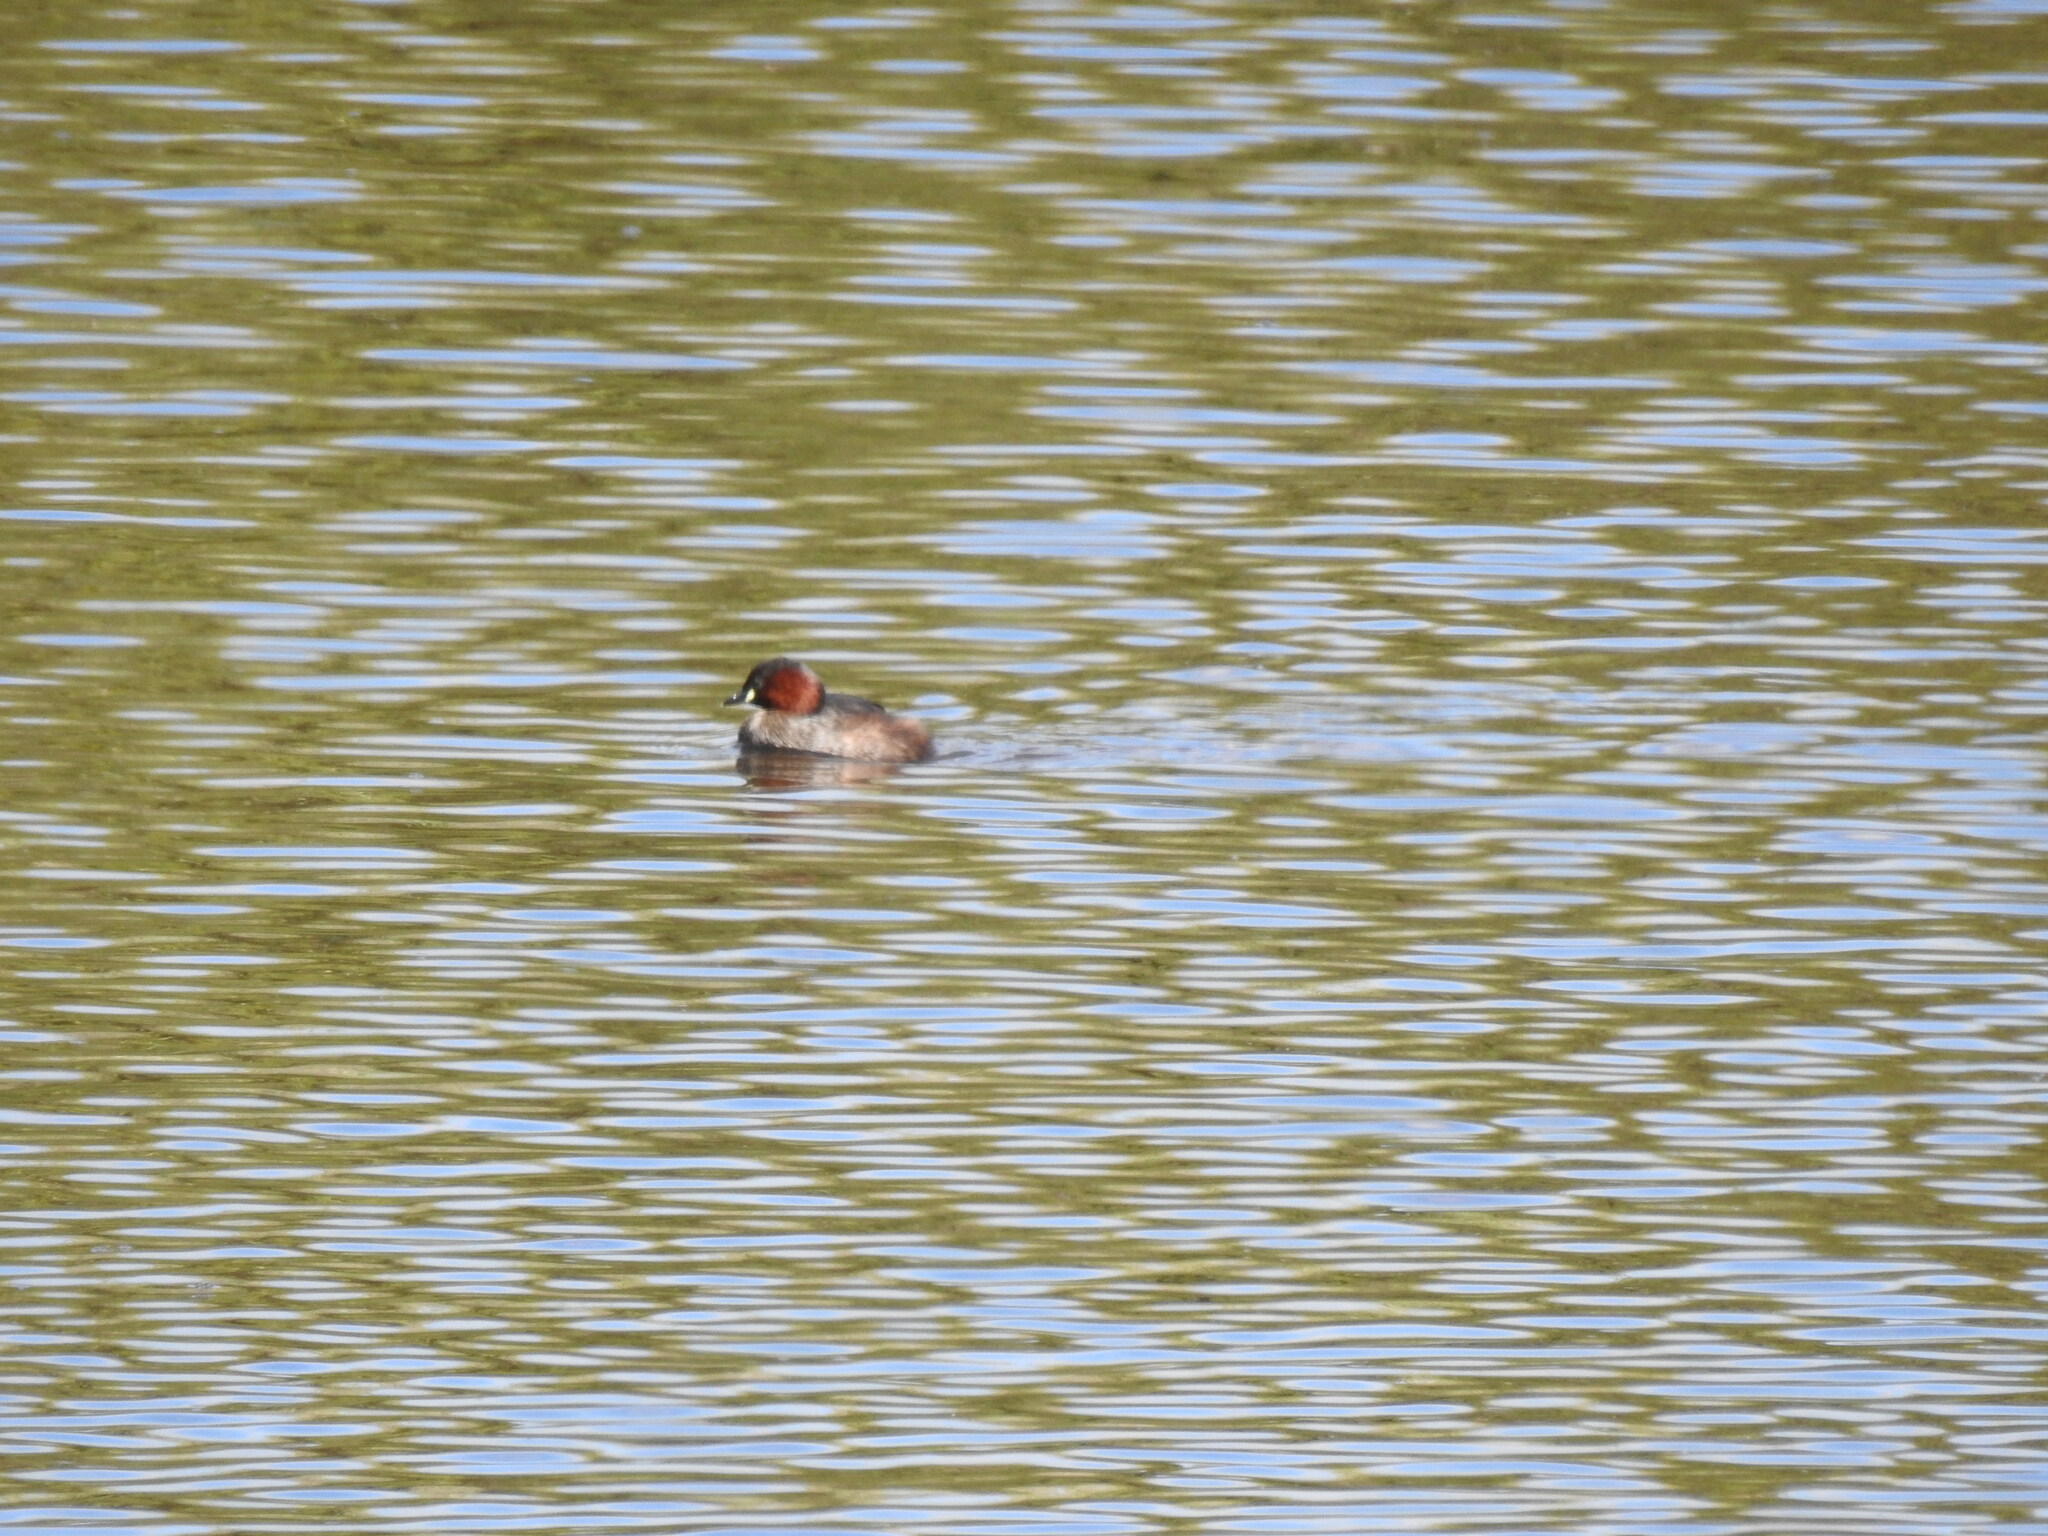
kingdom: Animalia
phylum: Chordata
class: Aves
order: Podicipediformes
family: Podicipedidae
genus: Tachybaptus
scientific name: Tachybaptus ruficollis
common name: Little grebe
